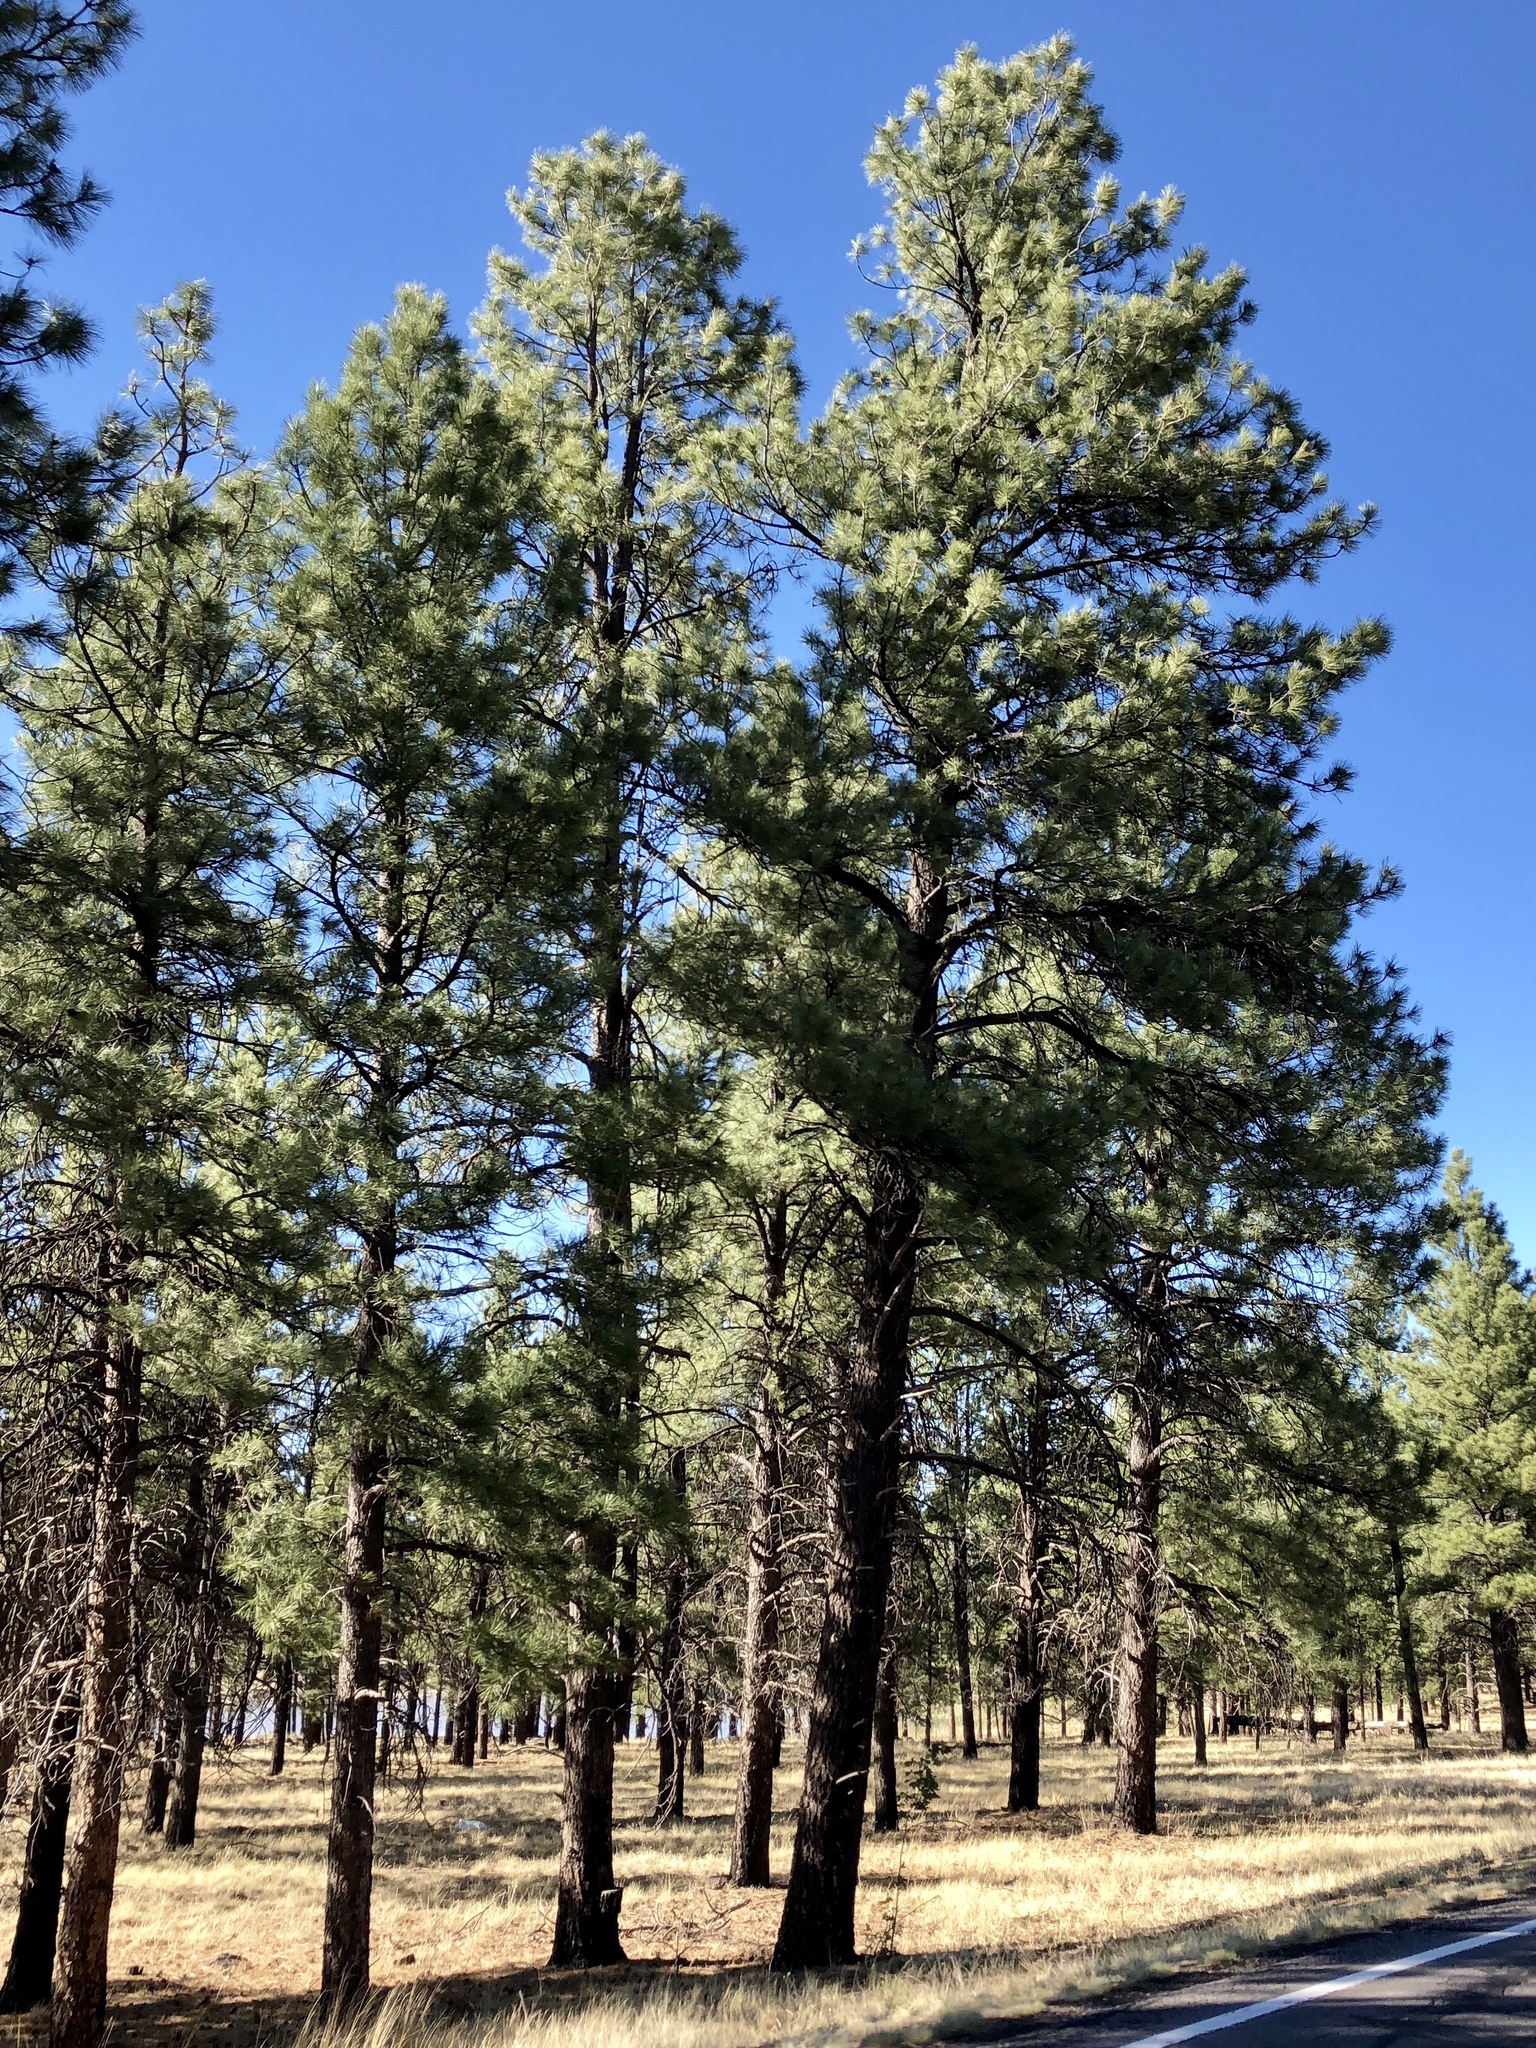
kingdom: Plantae
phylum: Tracheophyta
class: Pinopsida
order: Pinales
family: Pinaceae
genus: Pinus
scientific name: Pinus ponderosa
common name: Western yellow-pine
